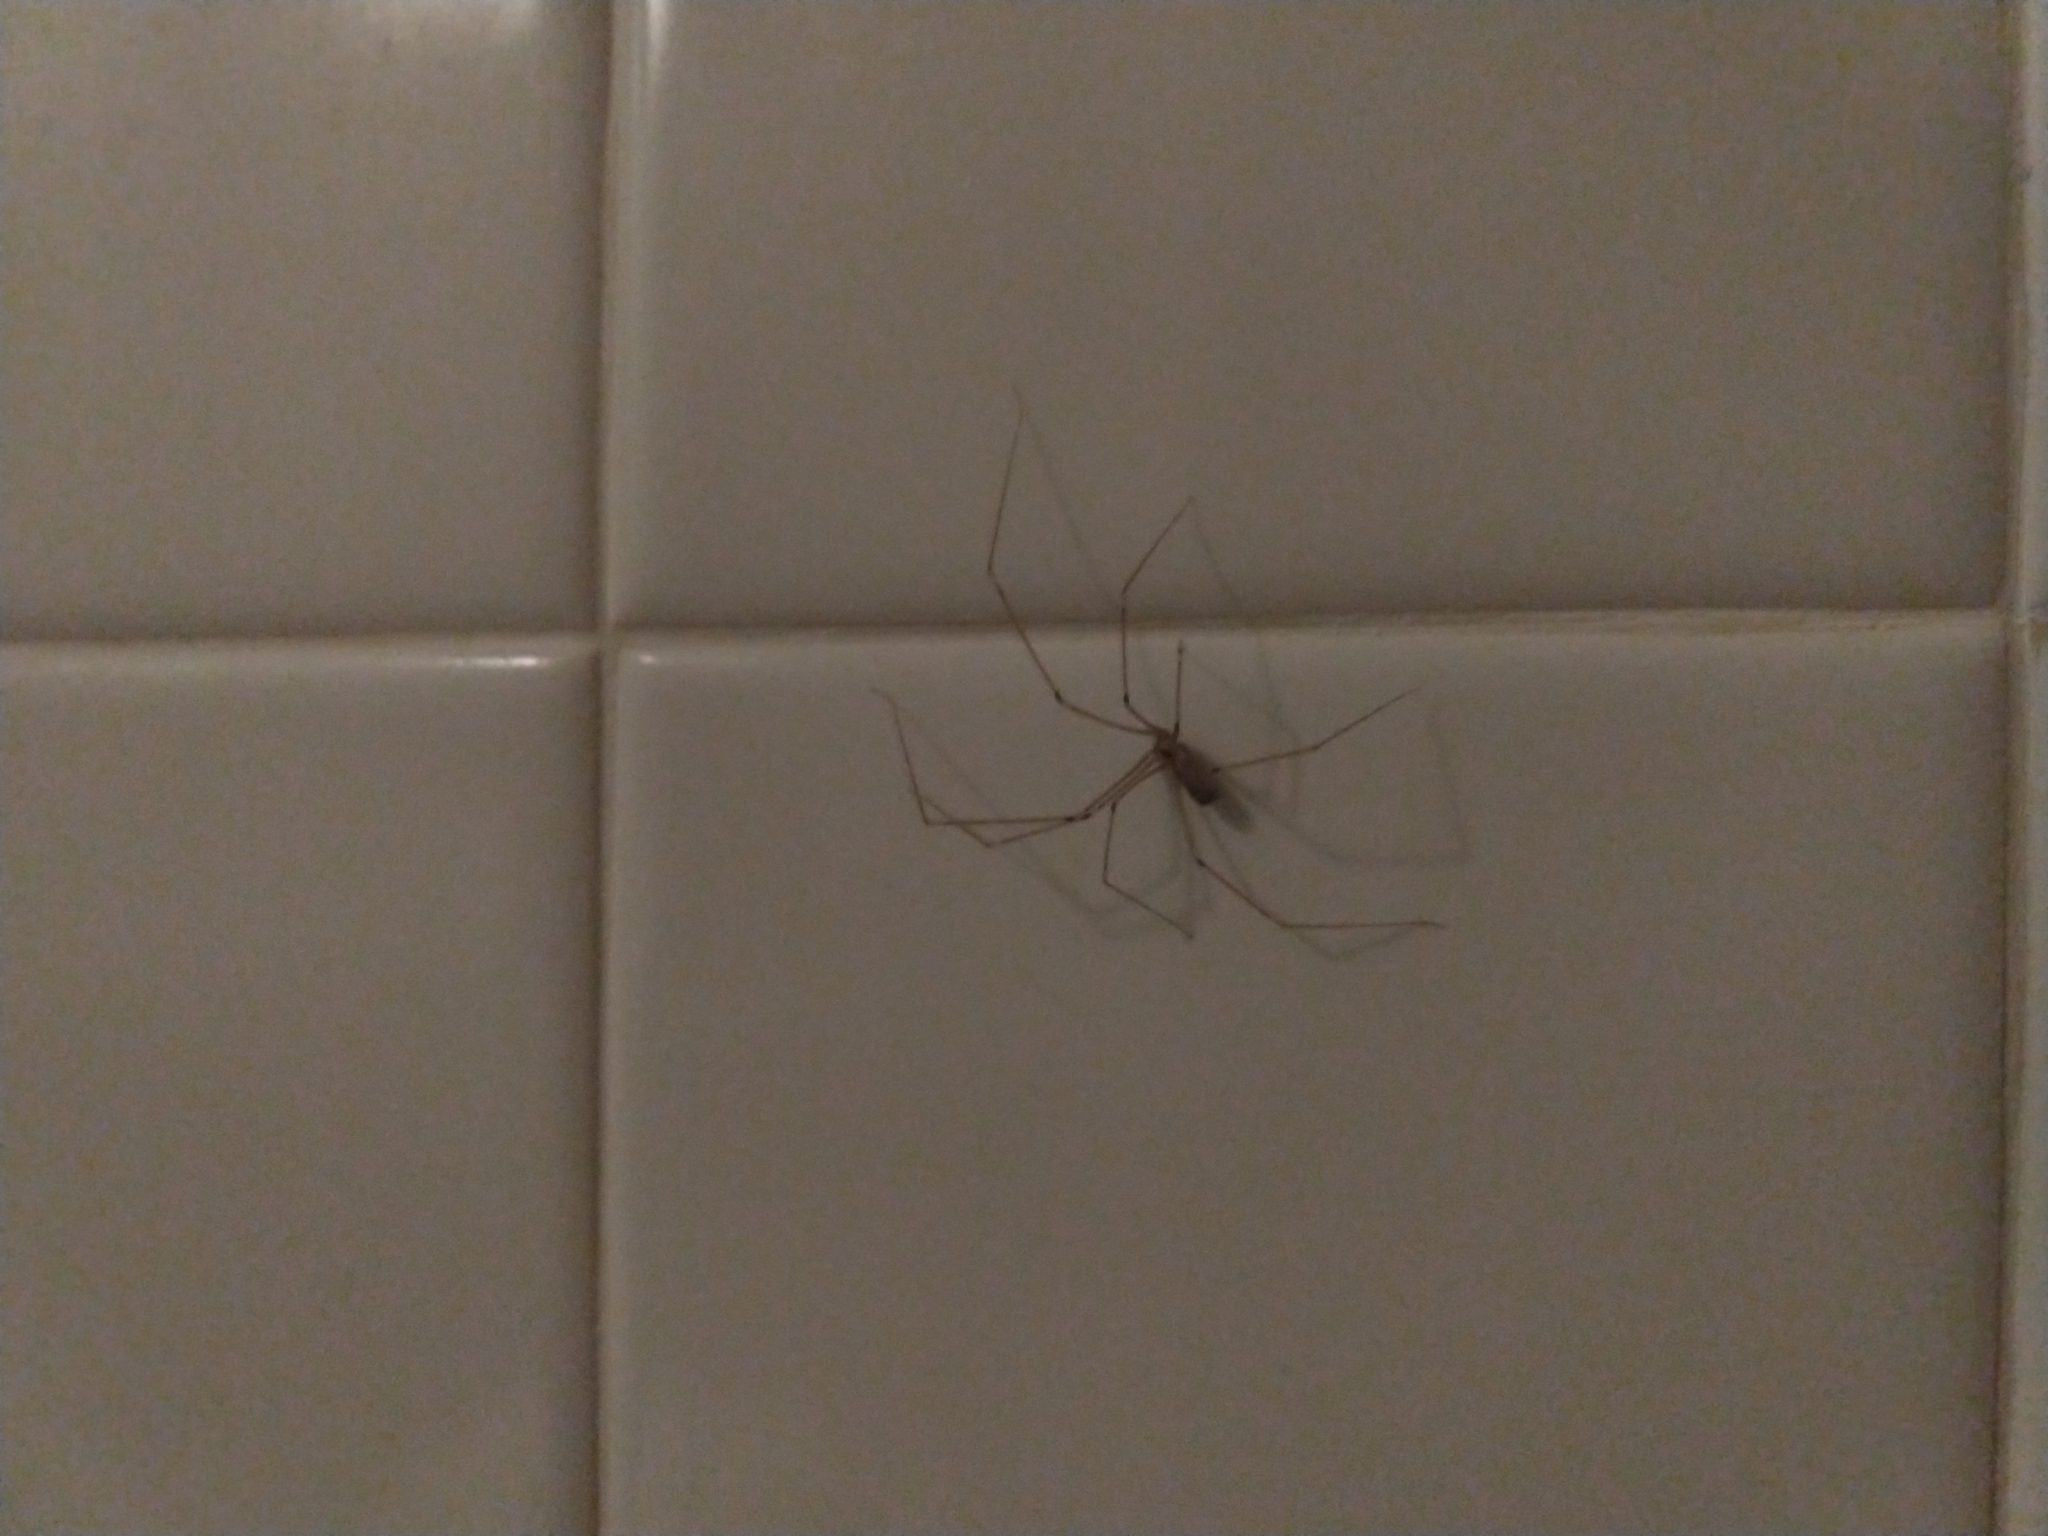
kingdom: Animalia
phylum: Arthropoda
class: Arachnida
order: Araneae
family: Pholcidae
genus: Pholcus
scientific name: Pholcus phalangioides
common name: Longbodied cellar spider
